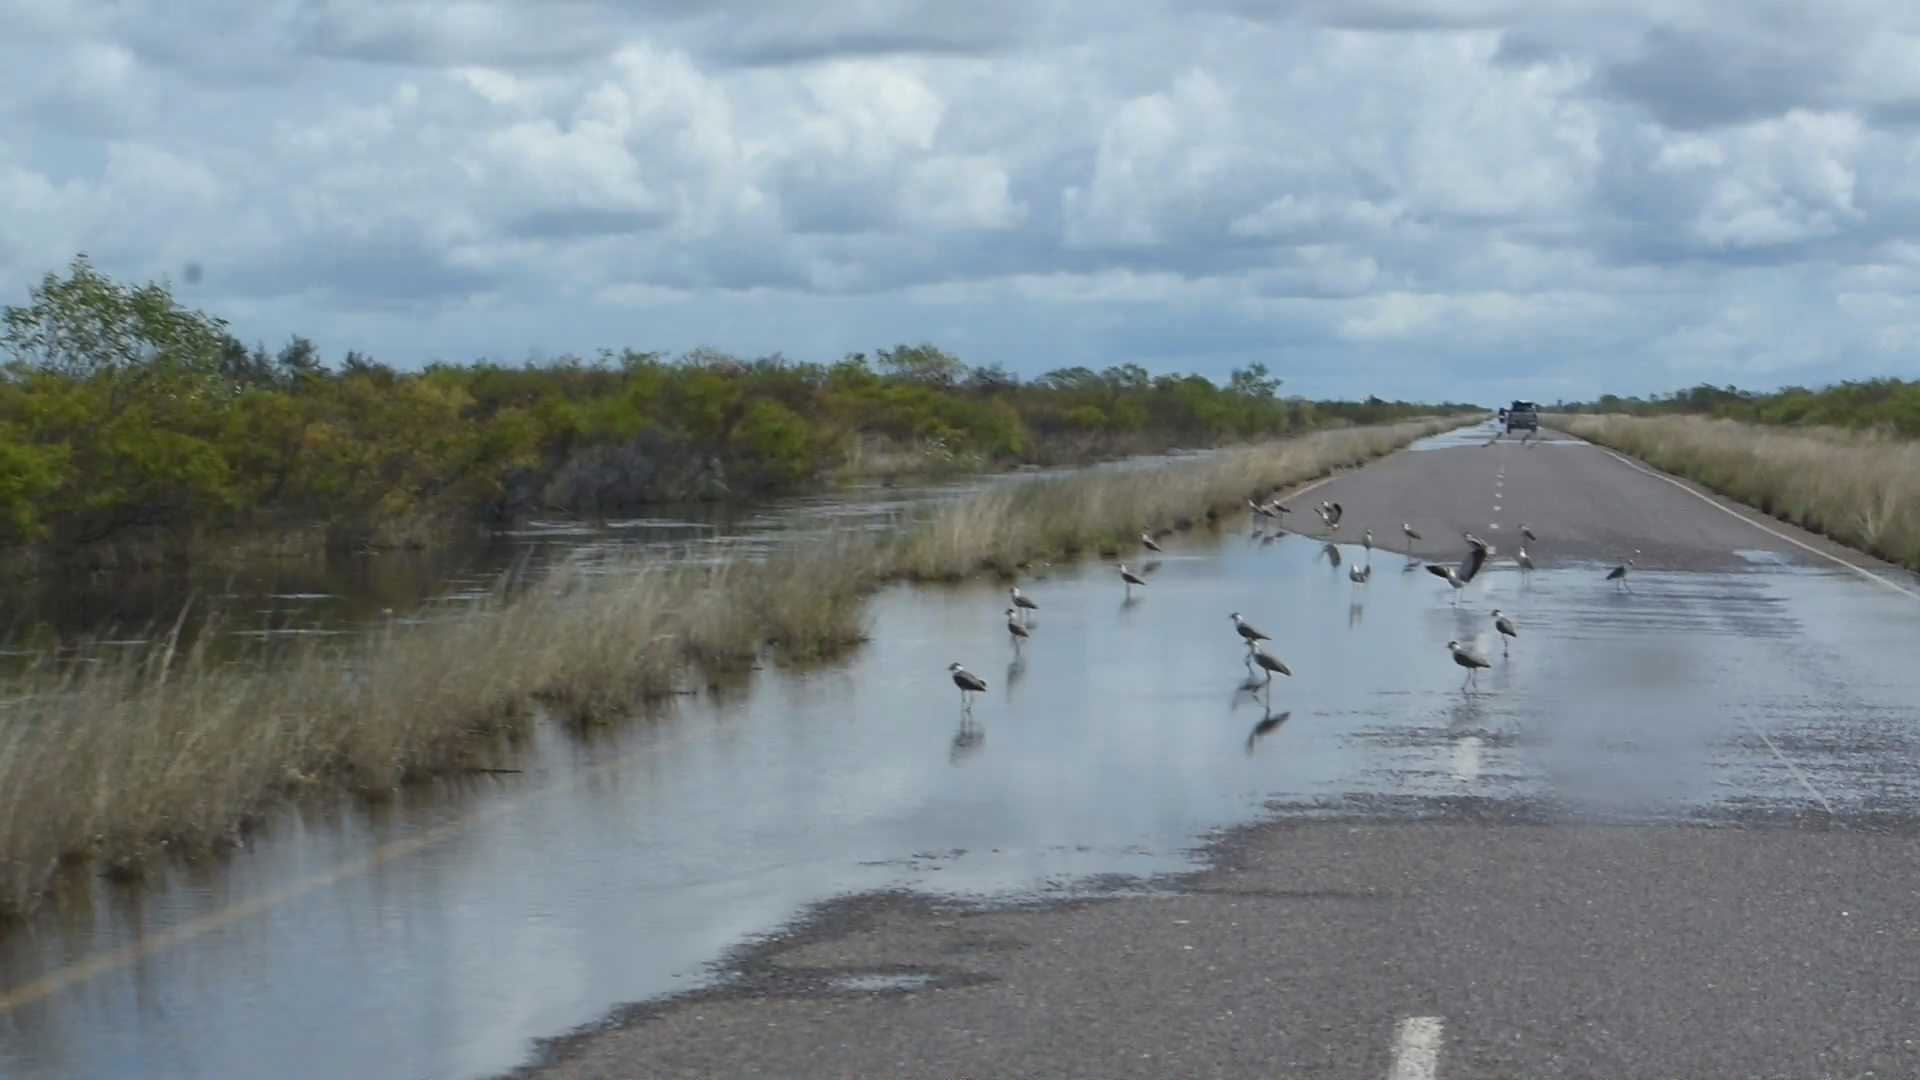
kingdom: Animalia
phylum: Chordata
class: Aves
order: Charadriiformes
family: Charadriidae
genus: Vanellus
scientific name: Vanellus miles
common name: Masked lapwing
